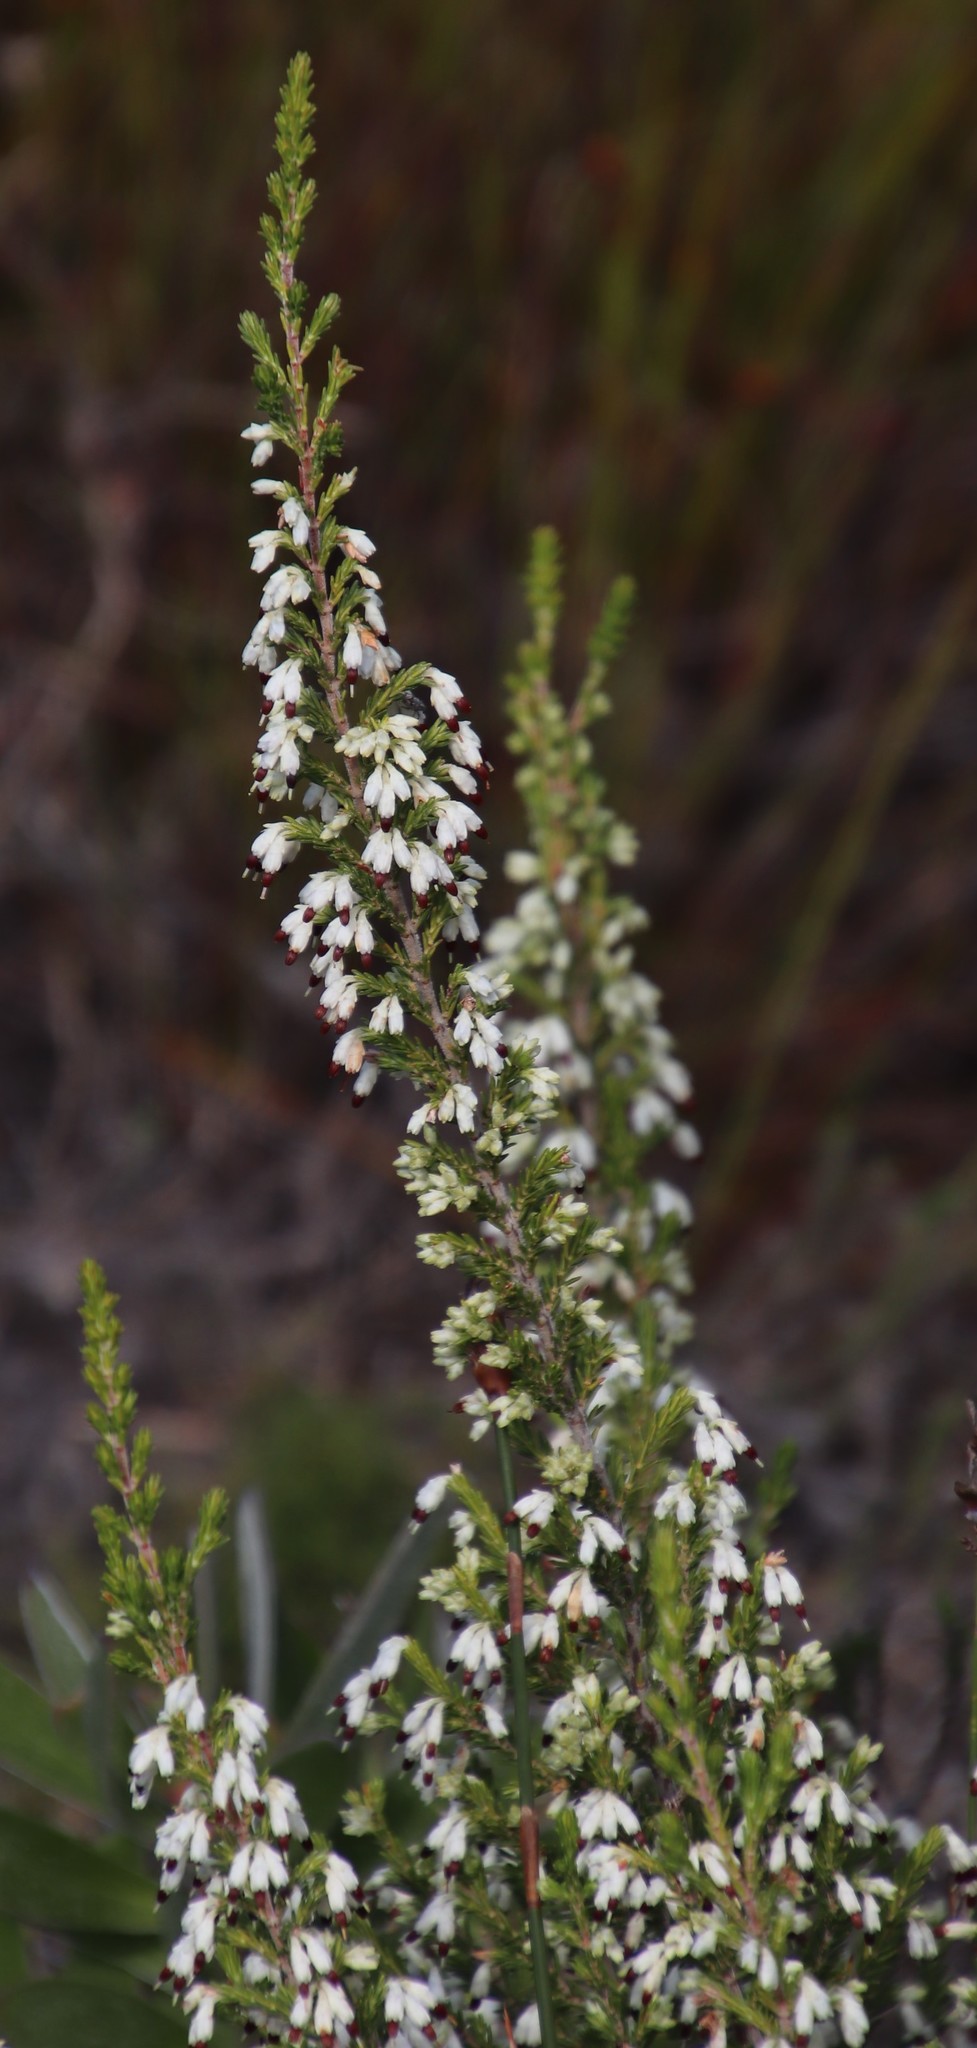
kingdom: Plantae
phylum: Tracheophyta
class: Magnoliopsida
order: Ericales
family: Ericaceae
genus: Erica
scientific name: Erica imbricata
